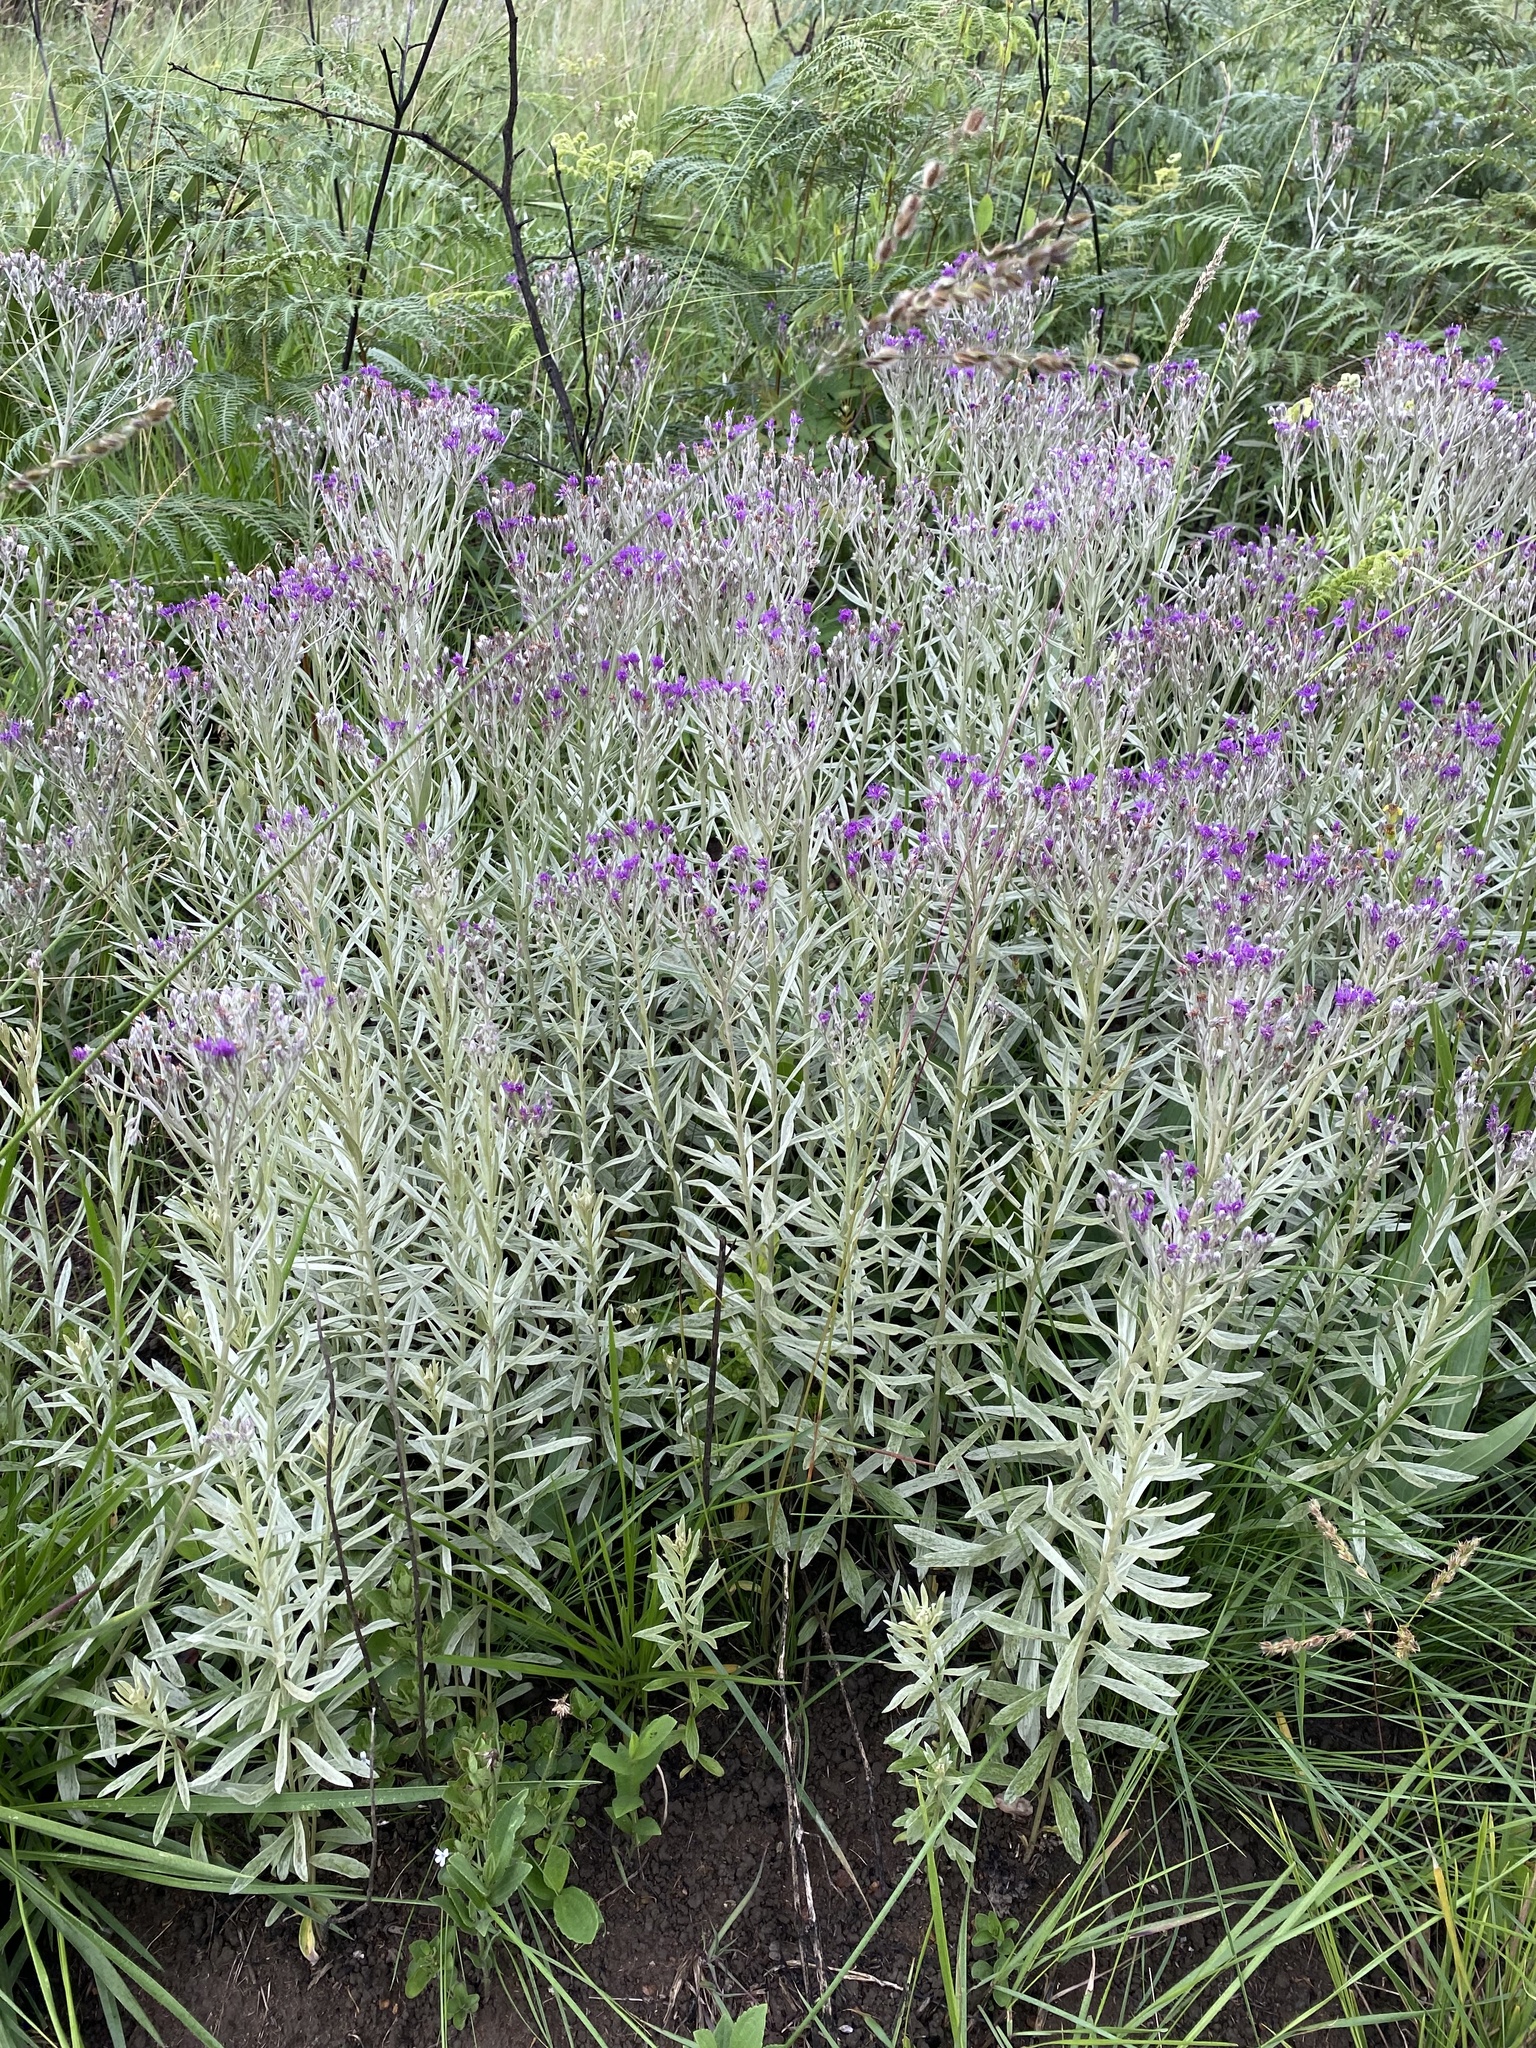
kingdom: Plantae
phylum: Tracheophyta
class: Magnoliopsida
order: Asterales
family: Asteraceae
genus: Hilliardiella
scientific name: Hilliardiella aristata
